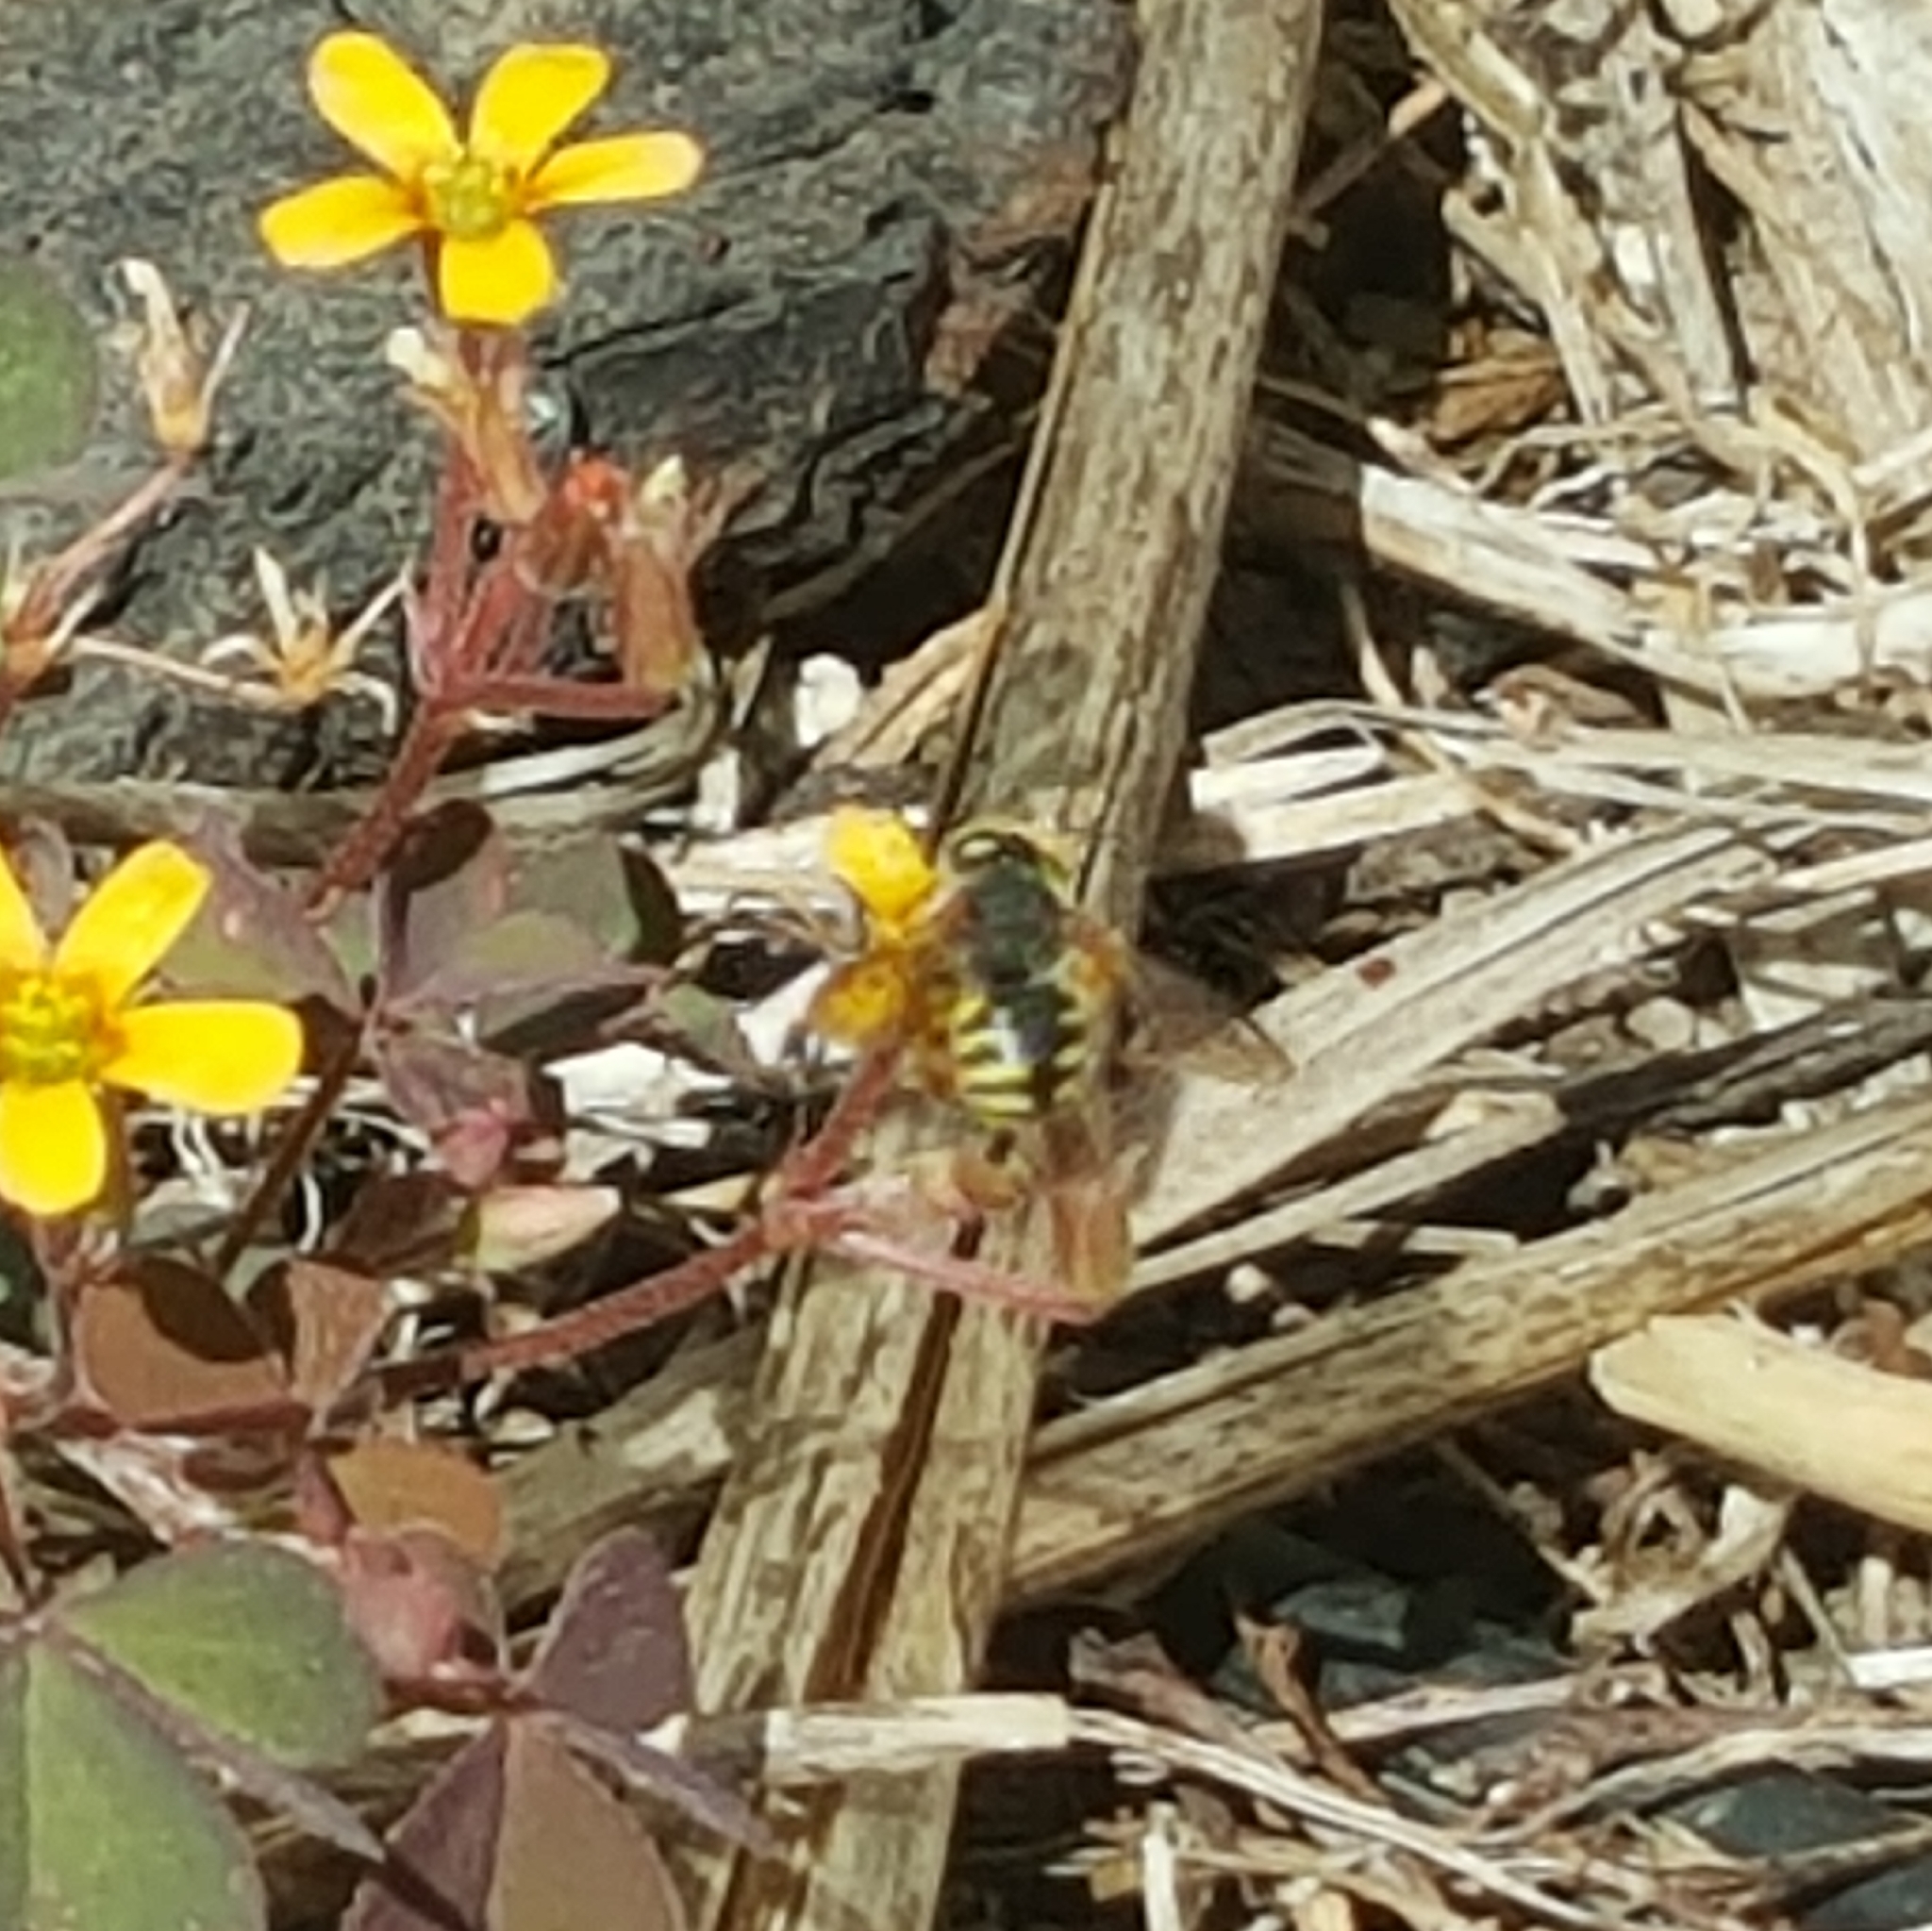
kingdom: Animalia
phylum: Arthropoda
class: Insecta
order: Hymenoptera
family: Megachilidae
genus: Anthidium
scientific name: Anthidium oblongatum
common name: Oblong wool carder bee
